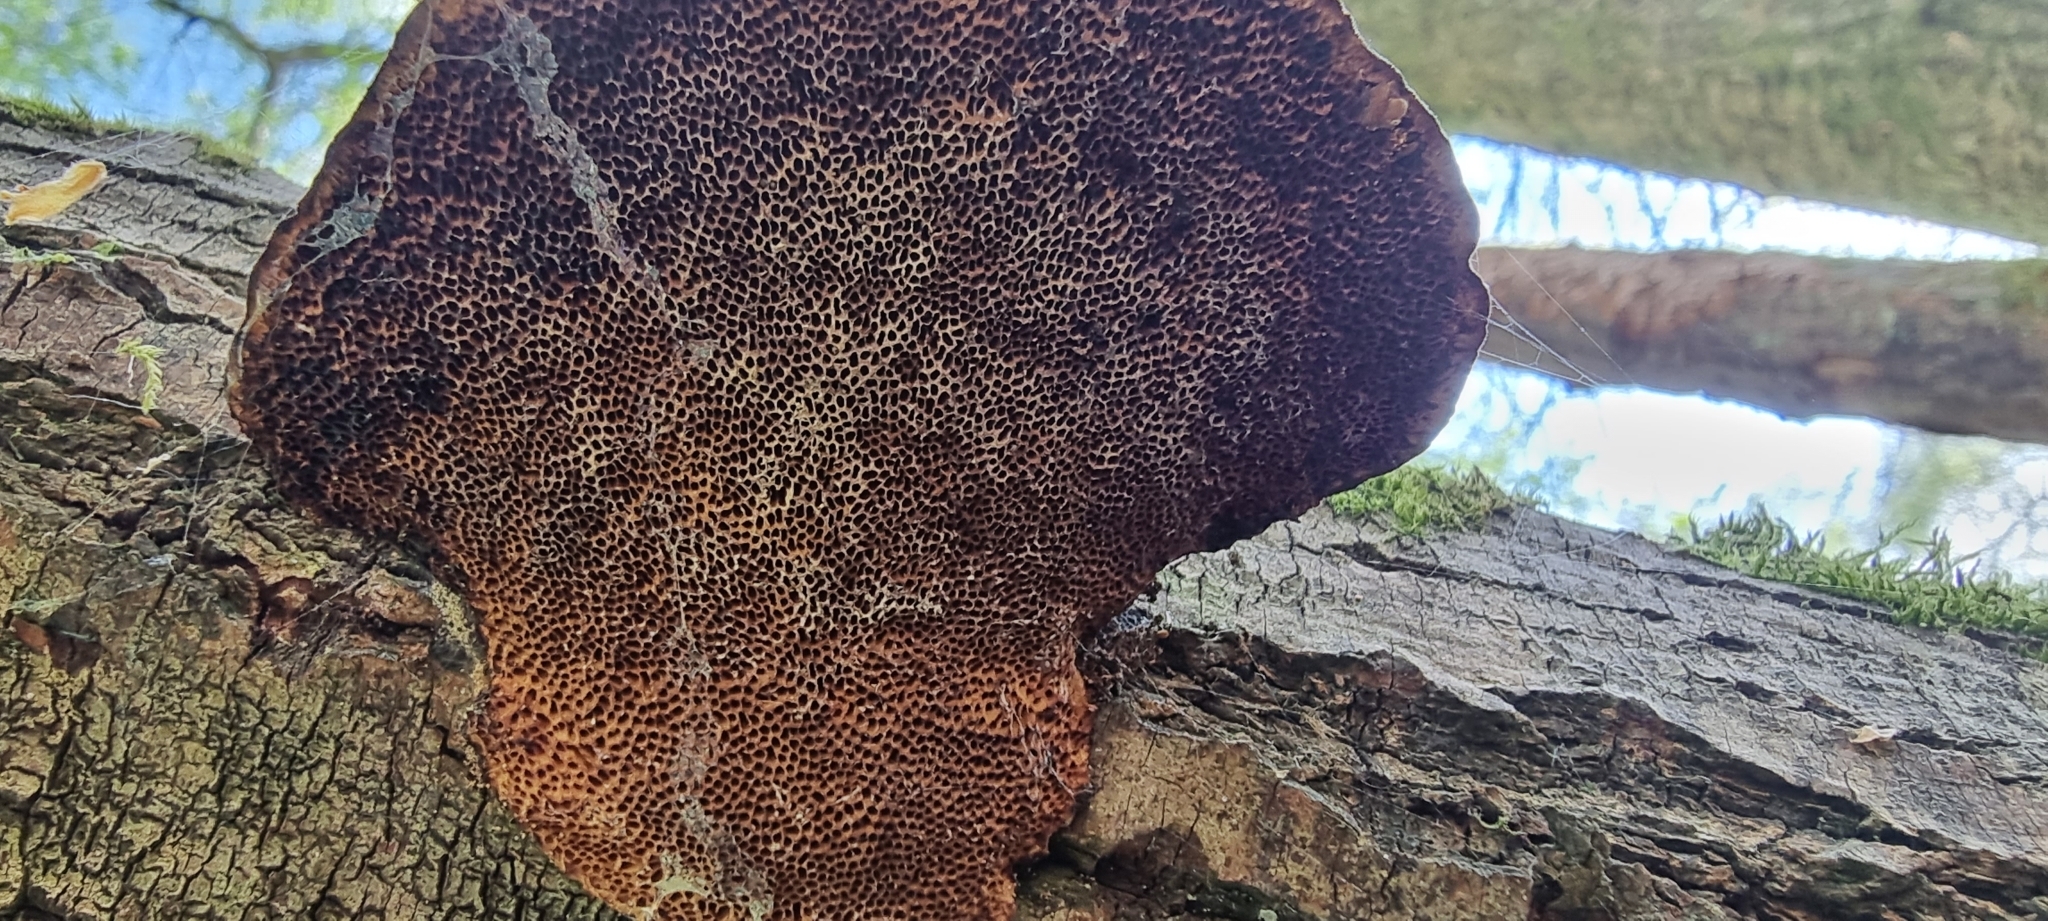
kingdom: Fungi
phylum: Basidiomycota
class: Agaricomycetes
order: Polyporales
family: Polyporaceae
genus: Daedaleopsis
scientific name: Daedaleopsis confragosa
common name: Blushing bracket
